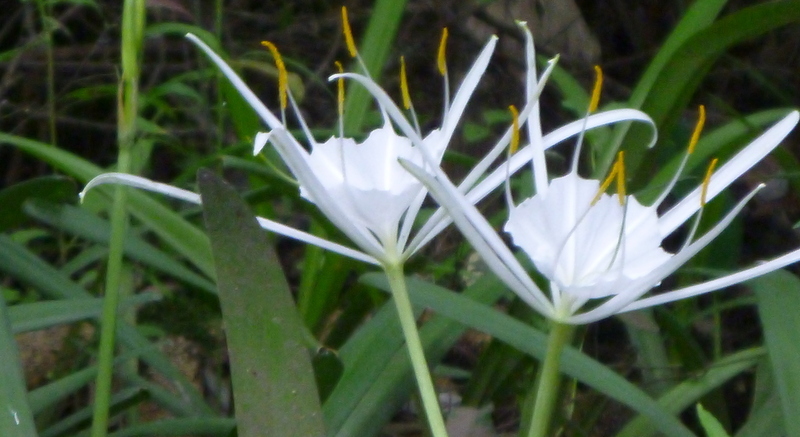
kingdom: Plantae
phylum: Tracheophyta
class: Liliopsida
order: Asparagales
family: Amaryllidaceae
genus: Hymenocallis
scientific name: Hymenocallis franklinensis
